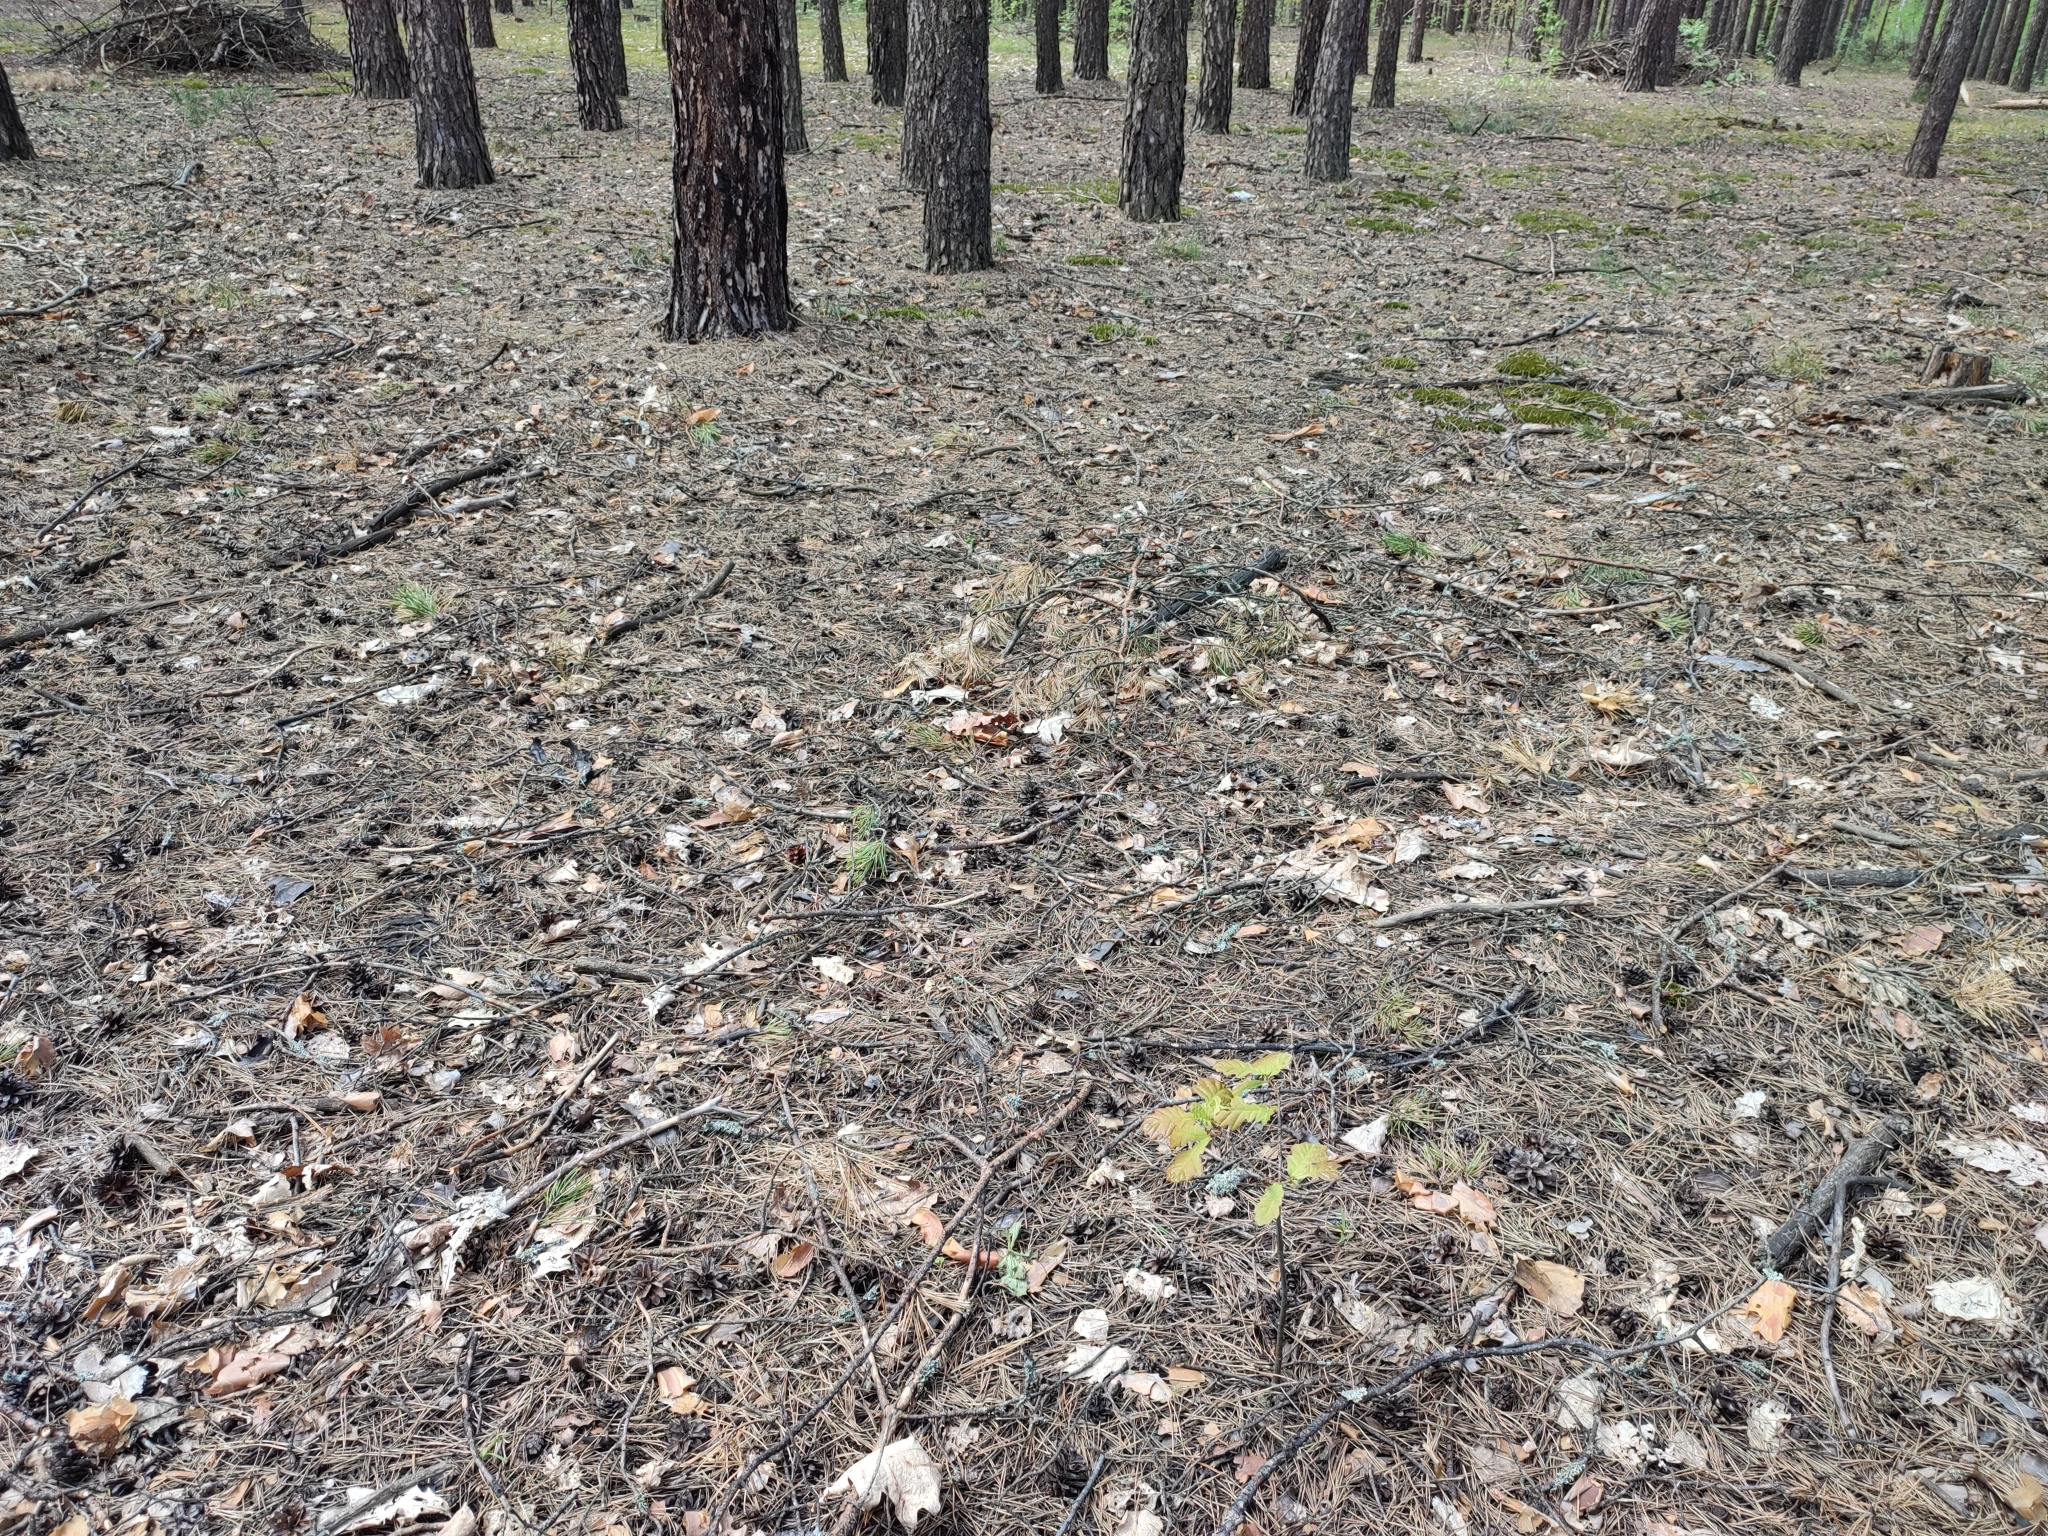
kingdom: Plantae
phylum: Tracheophyta
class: Magnoliopsida
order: Fagales
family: Fagaceae
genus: Quercus
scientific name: Quercus robur
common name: Pedunculate oak
